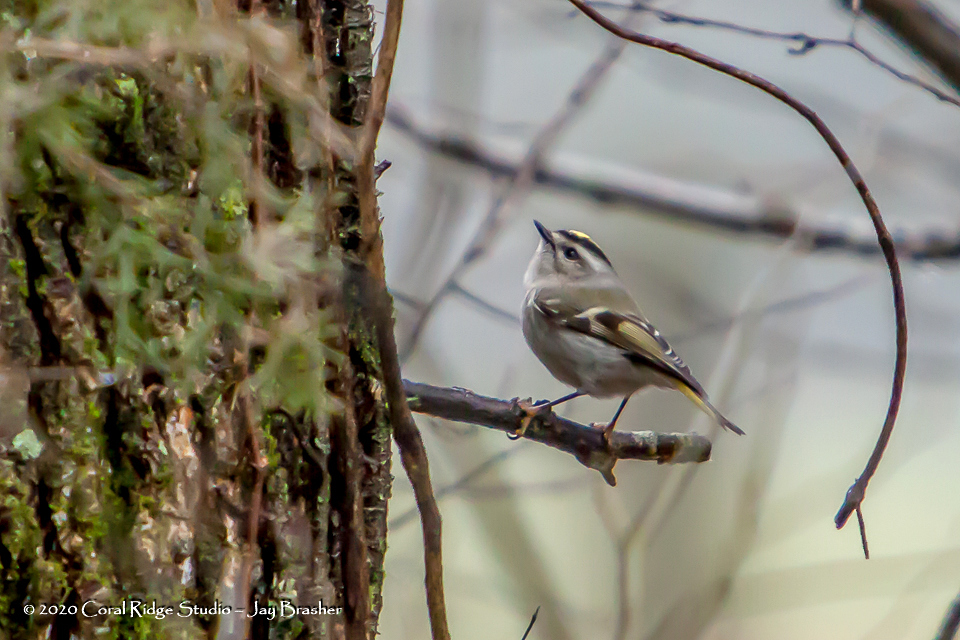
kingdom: Animalia
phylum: Chordata
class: Aves
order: Passeriformes
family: Regulidae
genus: Regulus
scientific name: Regulus satrapa
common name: Golden-crowned kinglet
